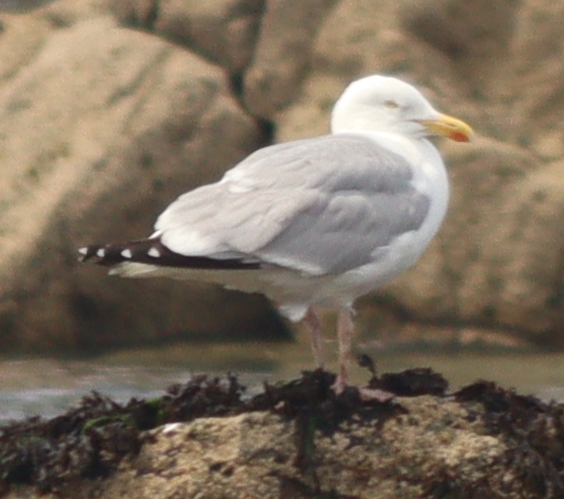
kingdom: Animalia
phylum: Chordata
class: Aves
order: Charadriiformes
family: Laridae
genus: Larus
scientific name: Larus argentatus
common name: Herring gull
